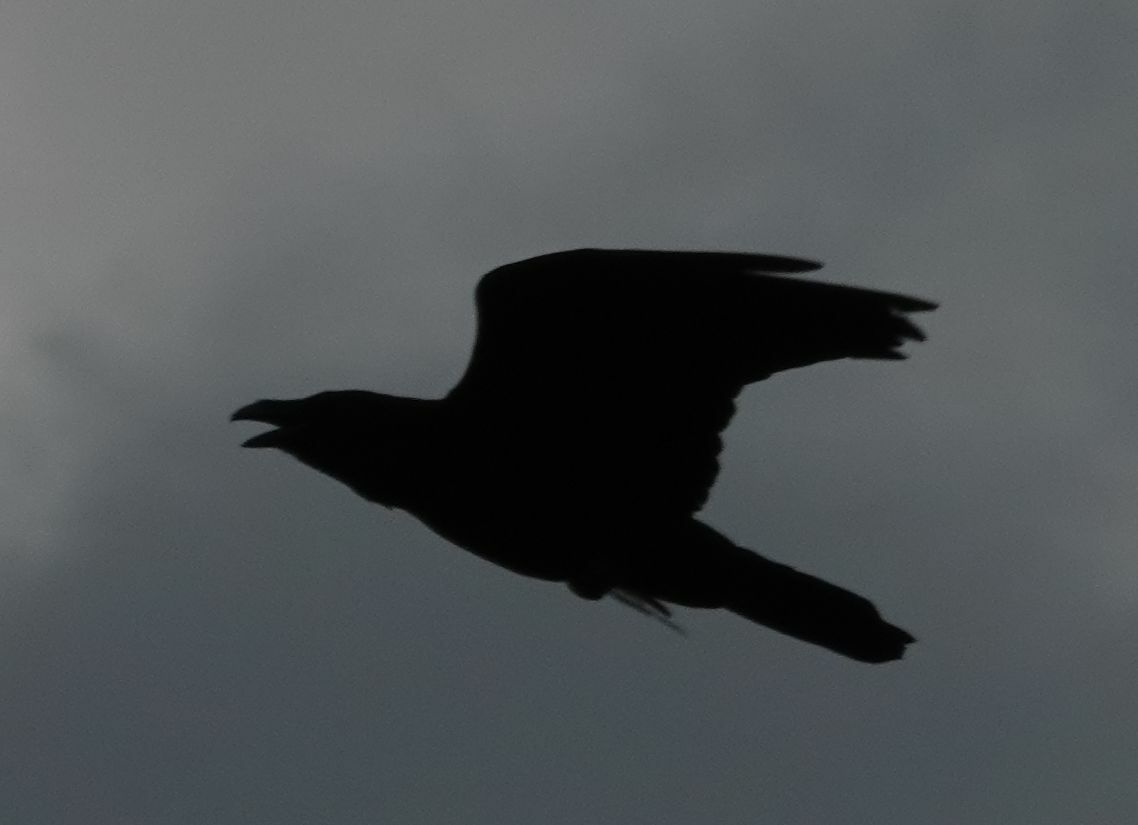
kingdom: Animalia
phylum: Chordata
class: Aves
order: Passeriformes
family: Corvidae
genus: Corvus
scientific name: Corvus corax
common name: Common raven
